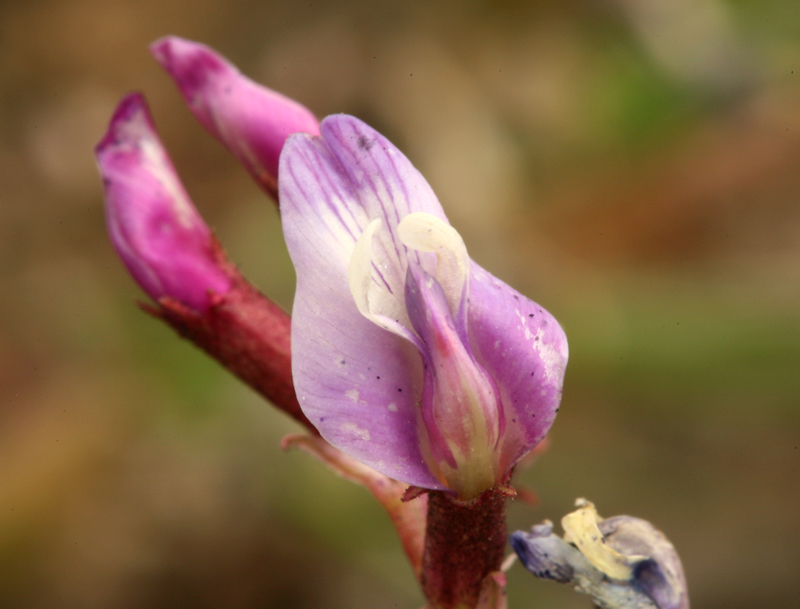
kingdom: Plantae
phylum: Tracheophyta
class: Magnoliopsida
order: Fabales
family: Fabaceae
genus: Astragalus
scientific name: Astragalus cimae
